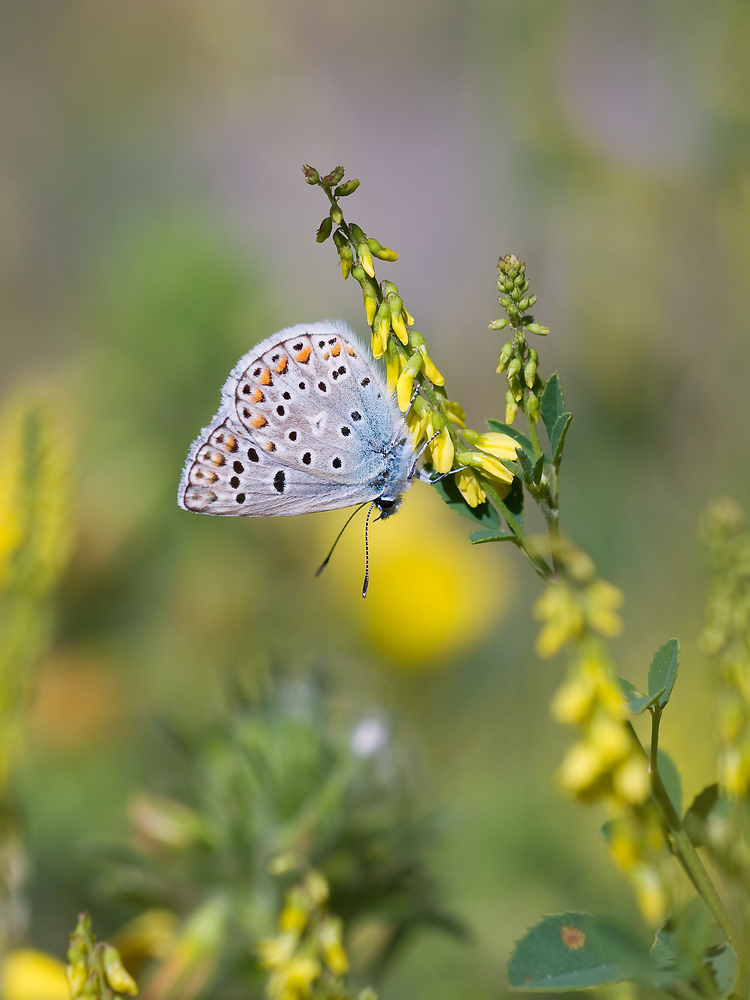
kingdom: Animalia
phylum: Arthropoda
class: Insecta
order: Lepidoptera
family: Lycaenidae
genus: Plebicula
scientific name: Plebicula escheri
